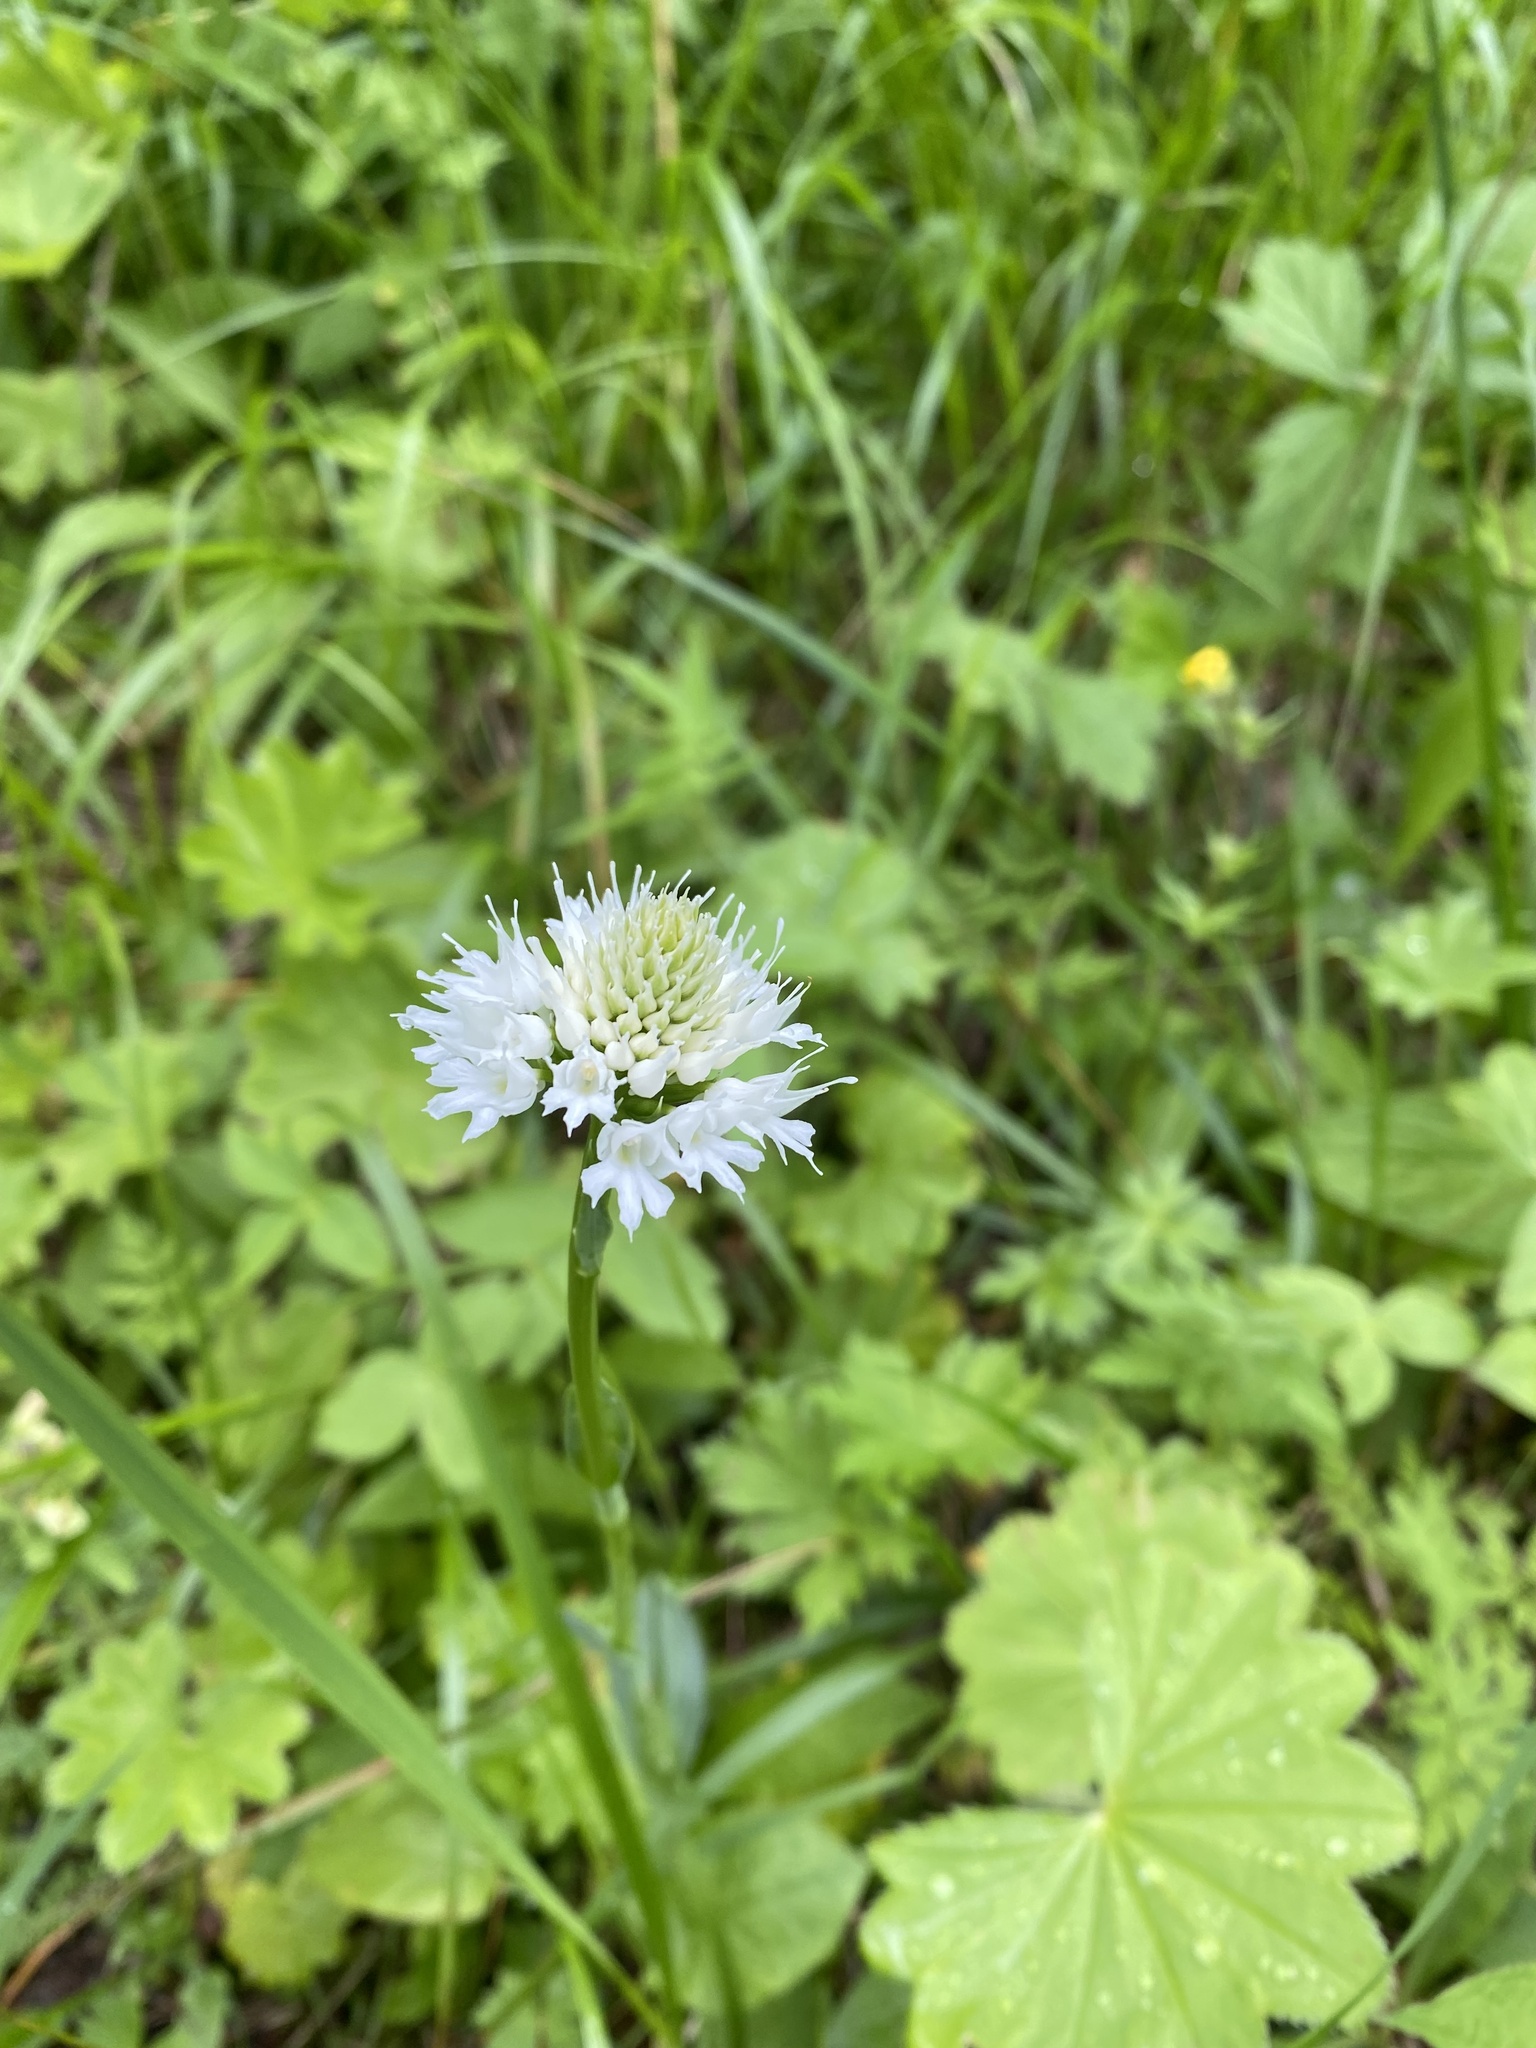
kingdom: Plantae
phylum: Tracheophyta
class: Liliopsida
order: Asparagales
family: Orchidaceae
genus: Traunsteinera
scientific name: Traunsteinera sphaerica
